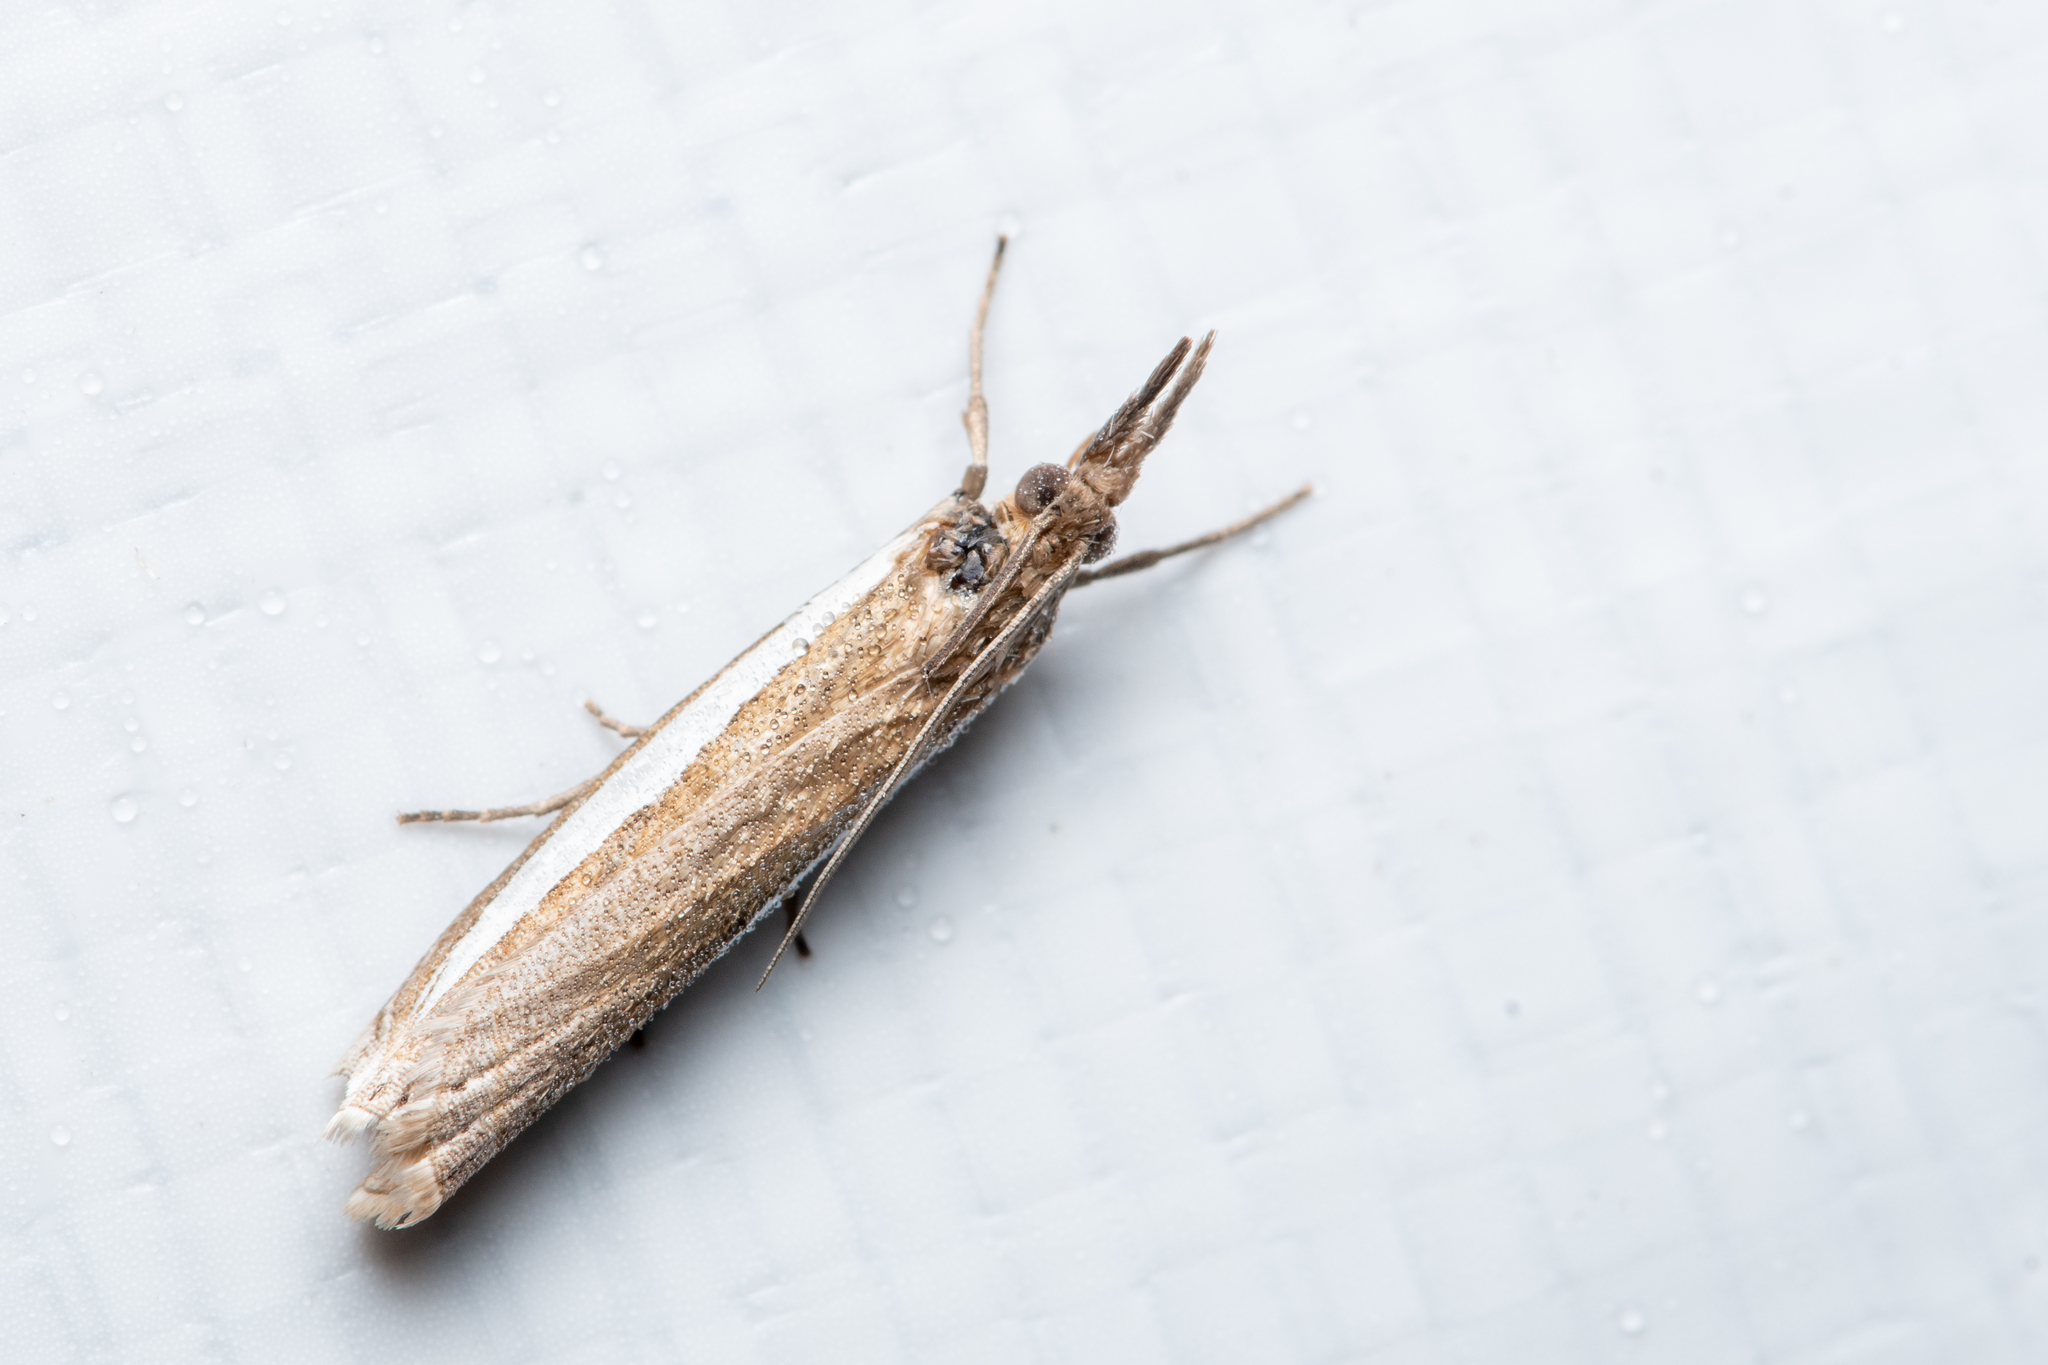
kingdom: Animalia
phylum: Arthropoda
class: Insecta
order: Lepidoptera
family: Crambidae
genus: Crambus
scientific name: Crambus leachellus
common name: Leach's grass-veneer
